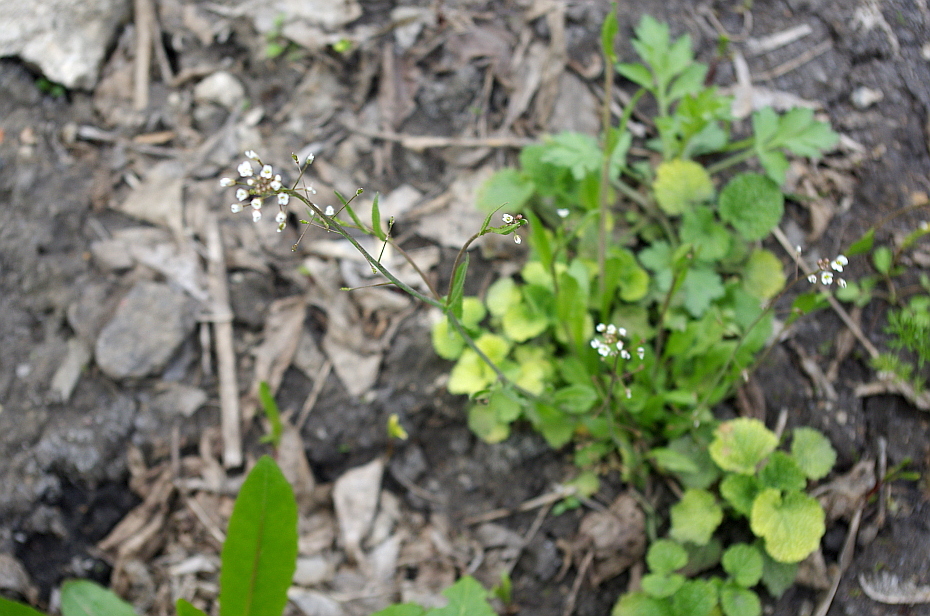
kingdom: Plantae
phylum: Tracheophyta
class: Magnoliopsida
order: Brassicales
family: Brassicaceae
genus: Capsella
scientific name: Capsella bursa-pastoris
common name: Shepherd's purse
